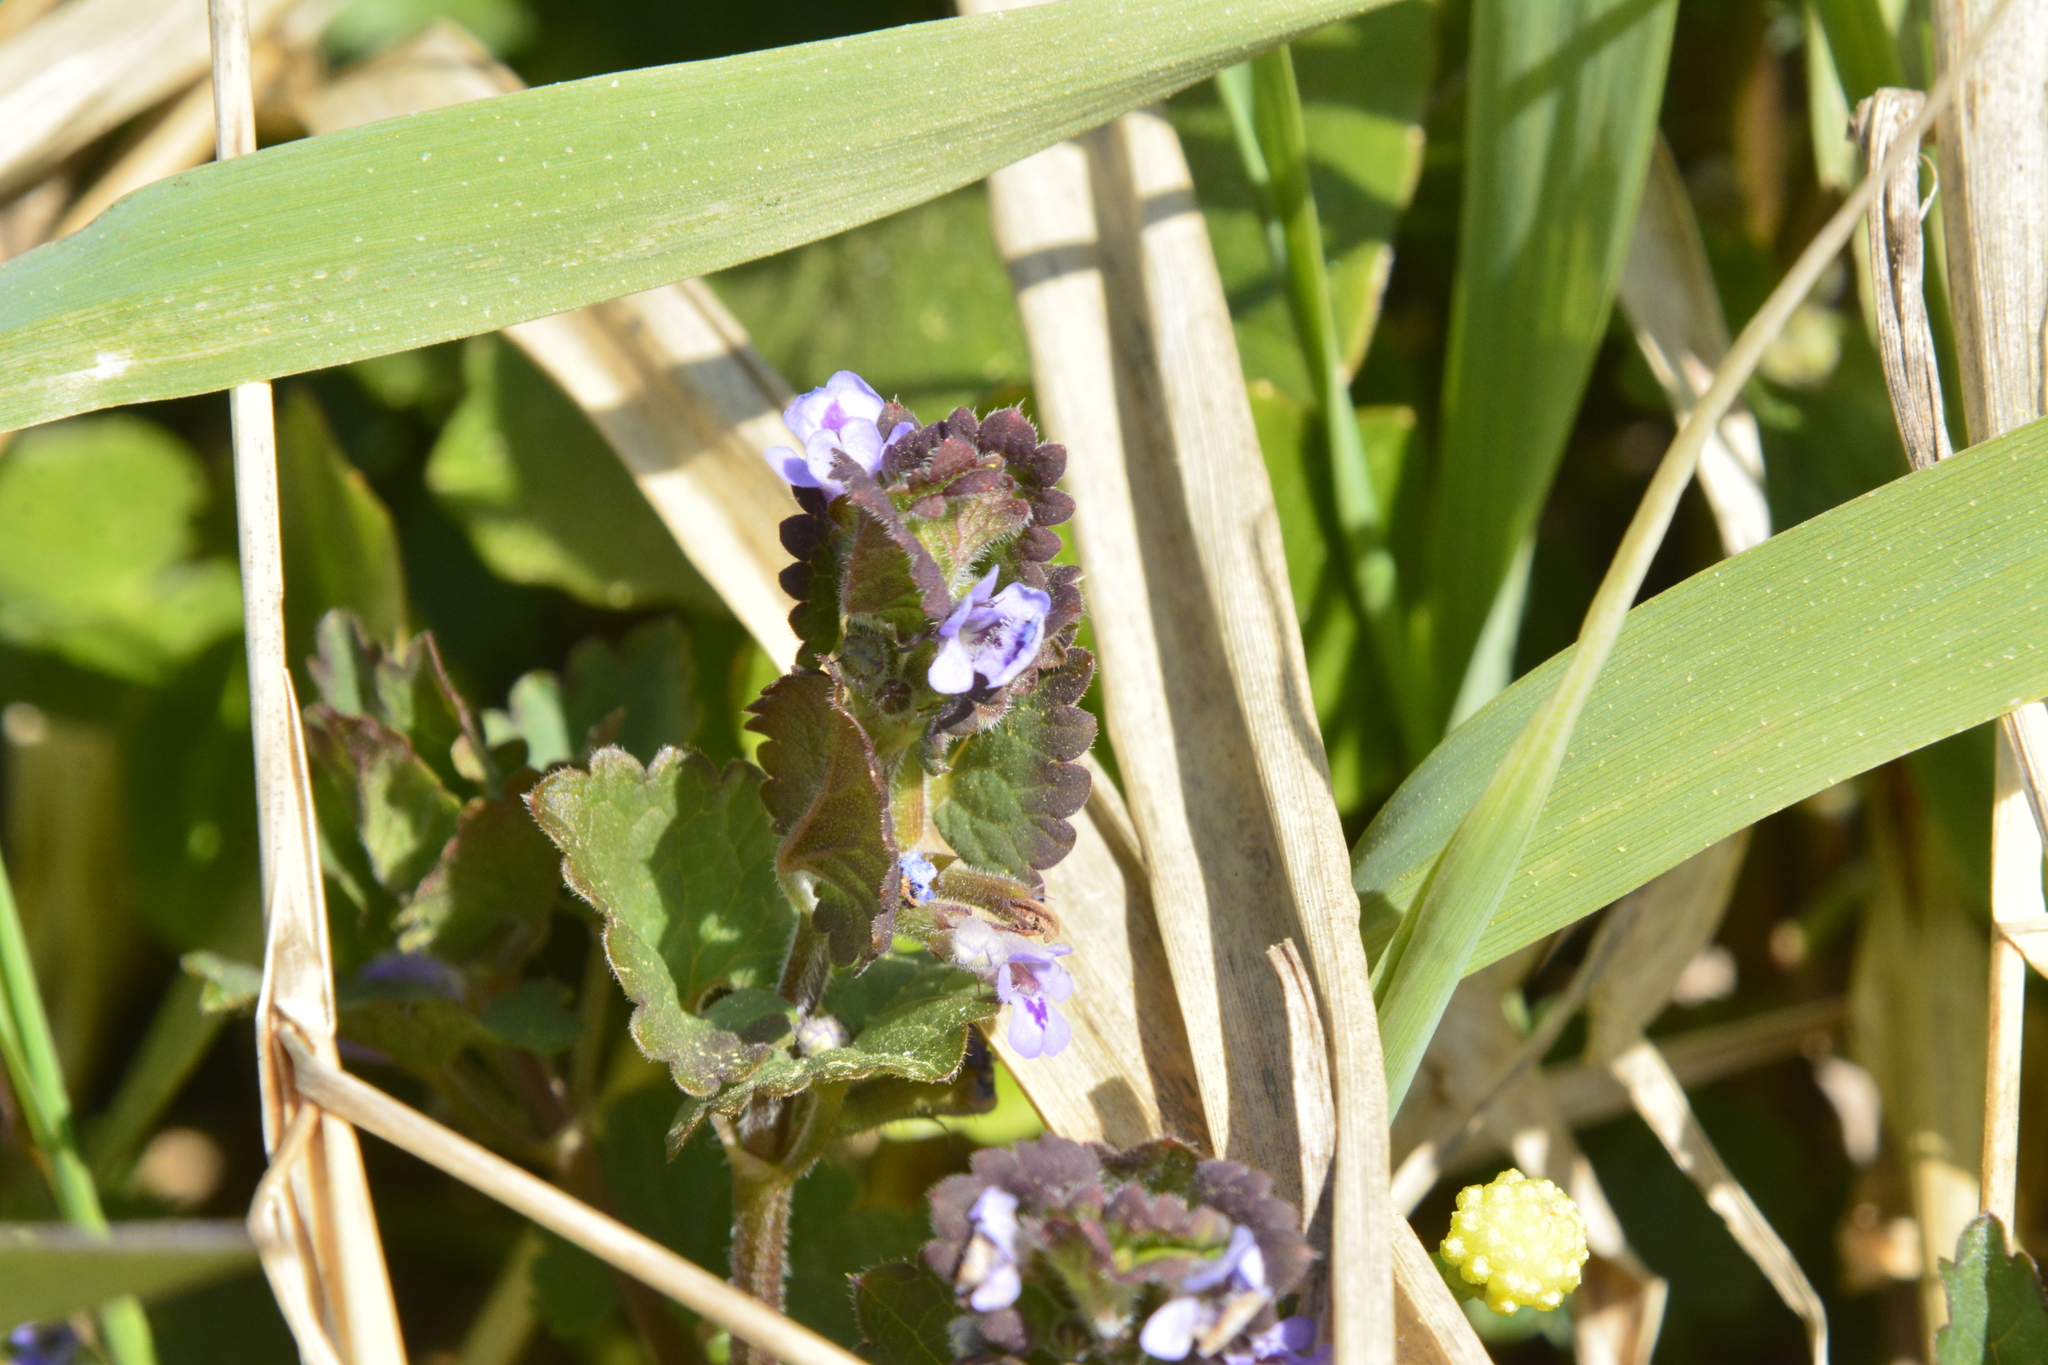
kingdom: Plantae
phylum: Tracheophyta
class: Magnoliopsida
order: Lamiales
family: Lamiaceae
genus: Glechoma
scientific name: Glechoma hederacea
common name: Ground ivy
